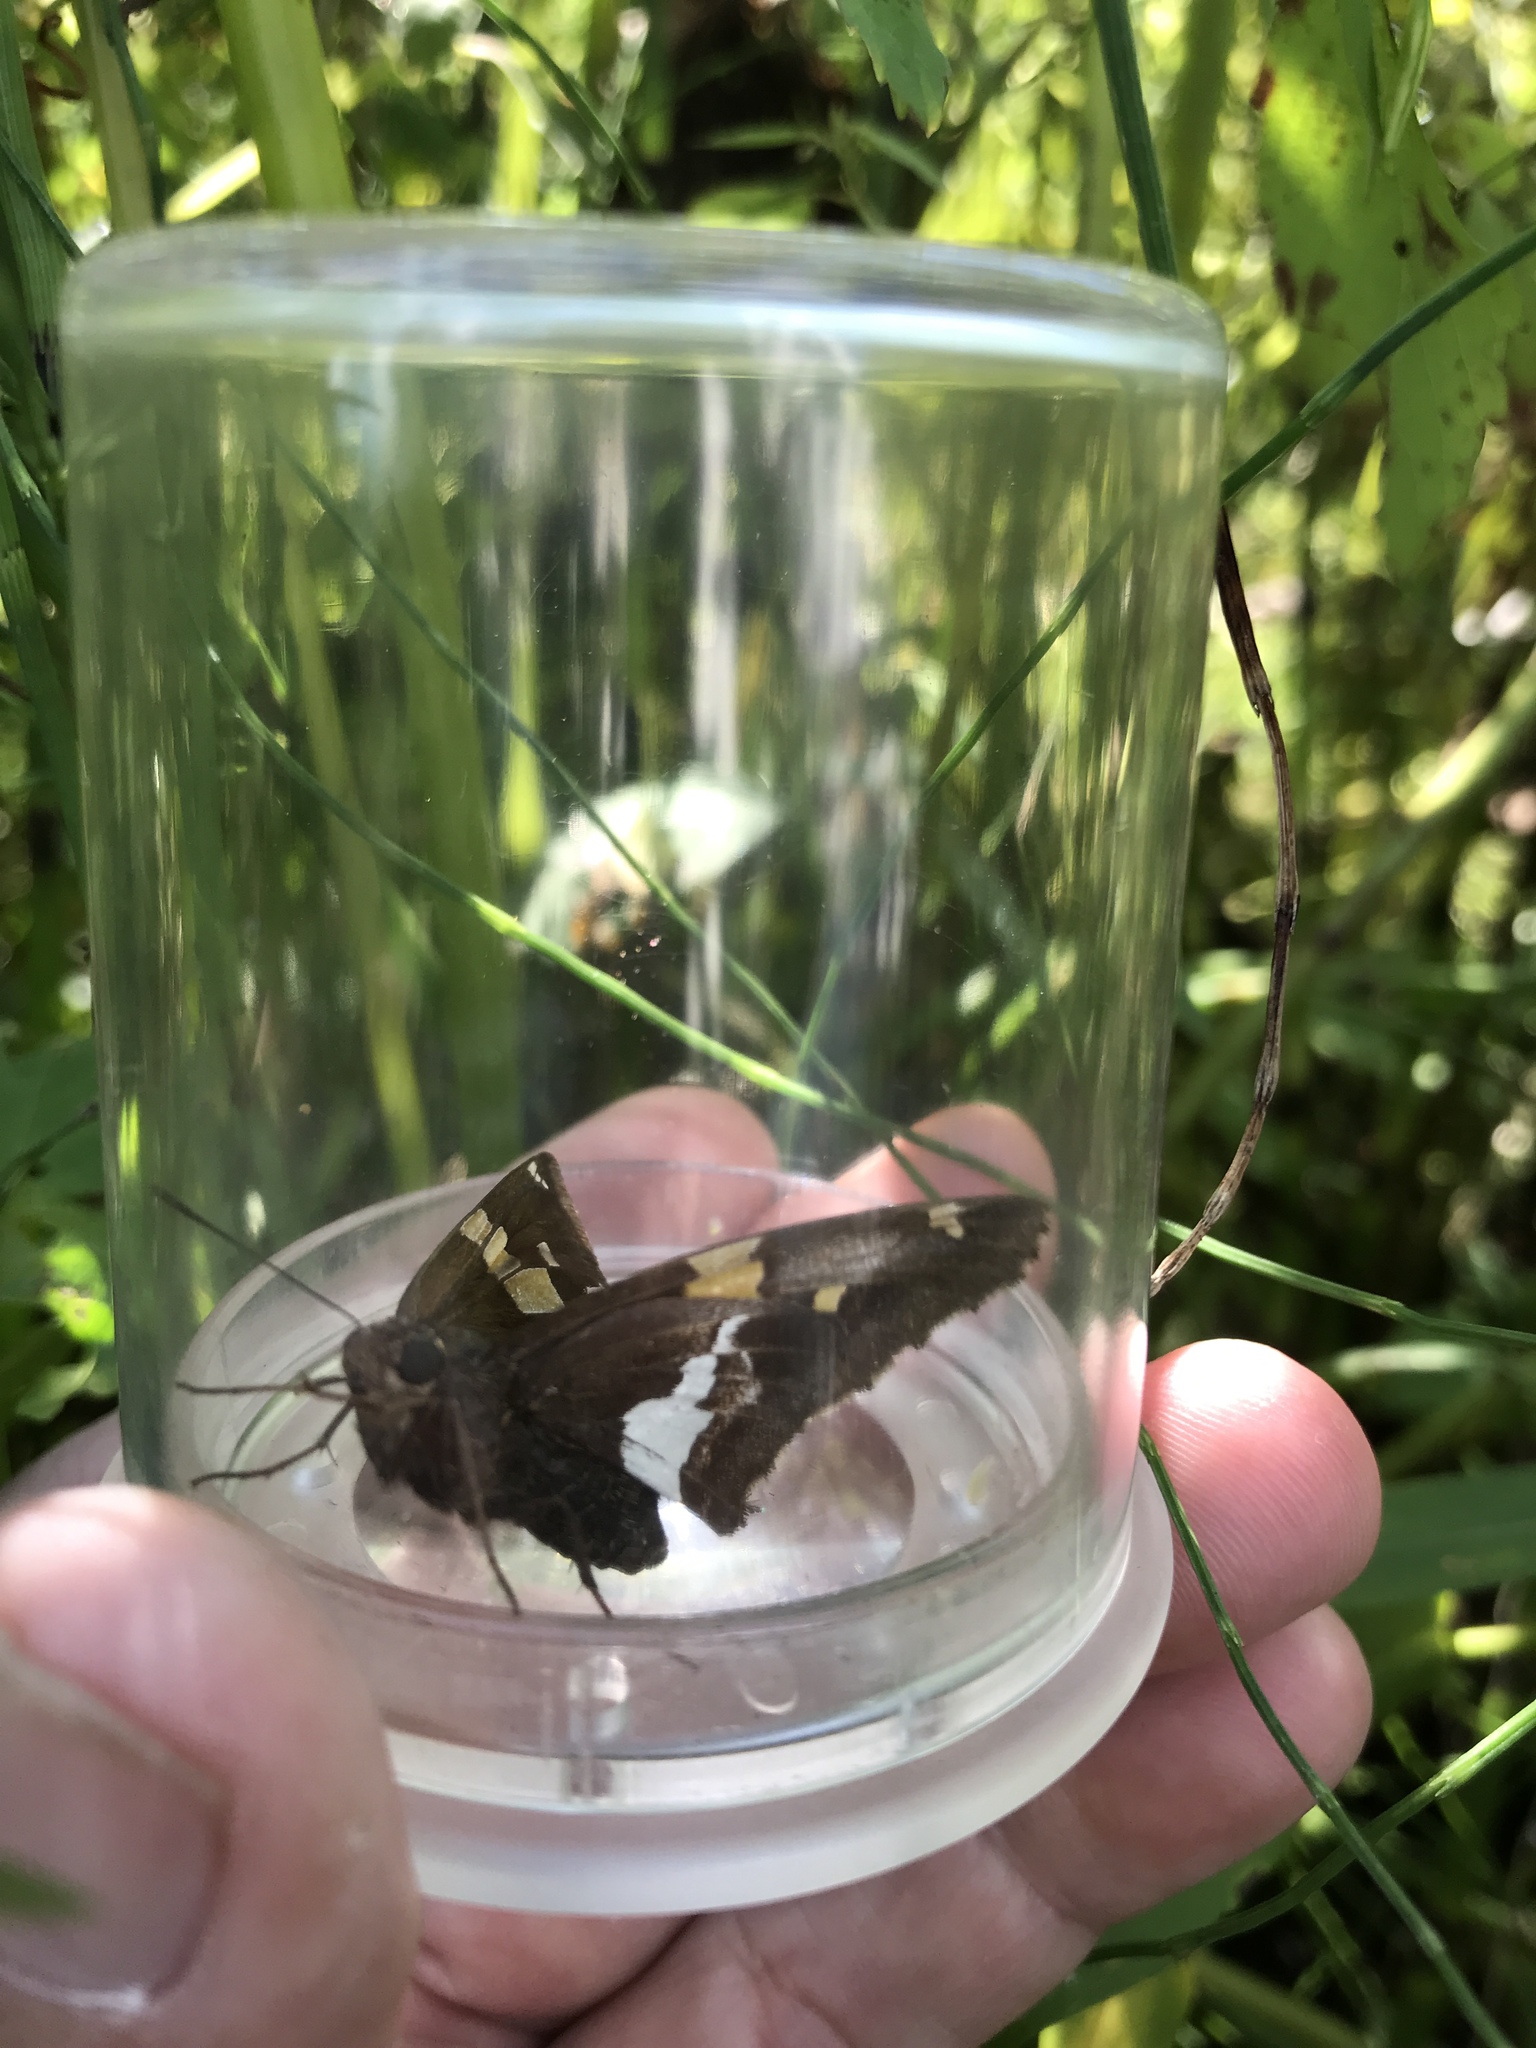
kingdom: Animalia
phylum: Arthropoda
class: Insecta
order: Lepidoptera
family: Hesperiidae
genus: Epargyreus
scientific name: Epargyreus clarus
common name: Silver-spotted skipper
